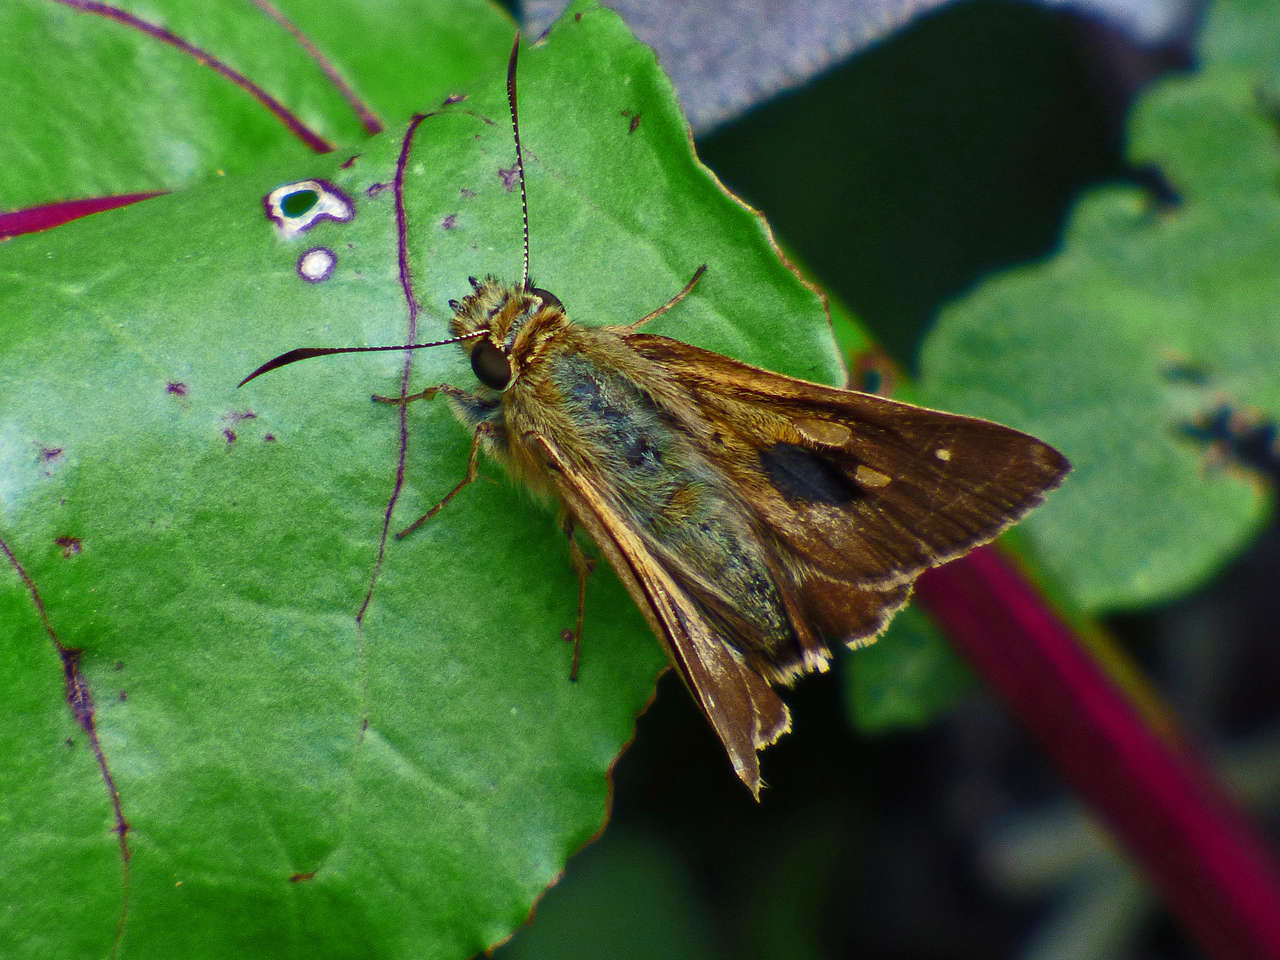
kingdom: Animalia
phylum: Arthropoda
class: Insecta
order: Lepidoptera
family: Hesperiidae
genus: Toxidia
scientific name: Toxidia
